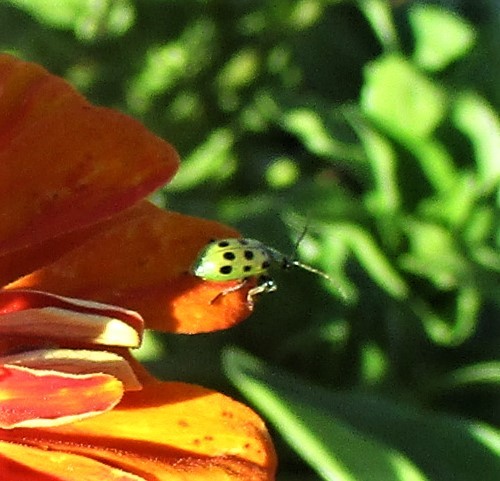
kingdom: Animalia
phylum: Arthropoda
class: Insecta
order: Coleoptera
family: Chrysomelidae
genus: Diabrotica
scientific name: Diabrotica undecimpunctata
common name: Spotted cucumber beetle
